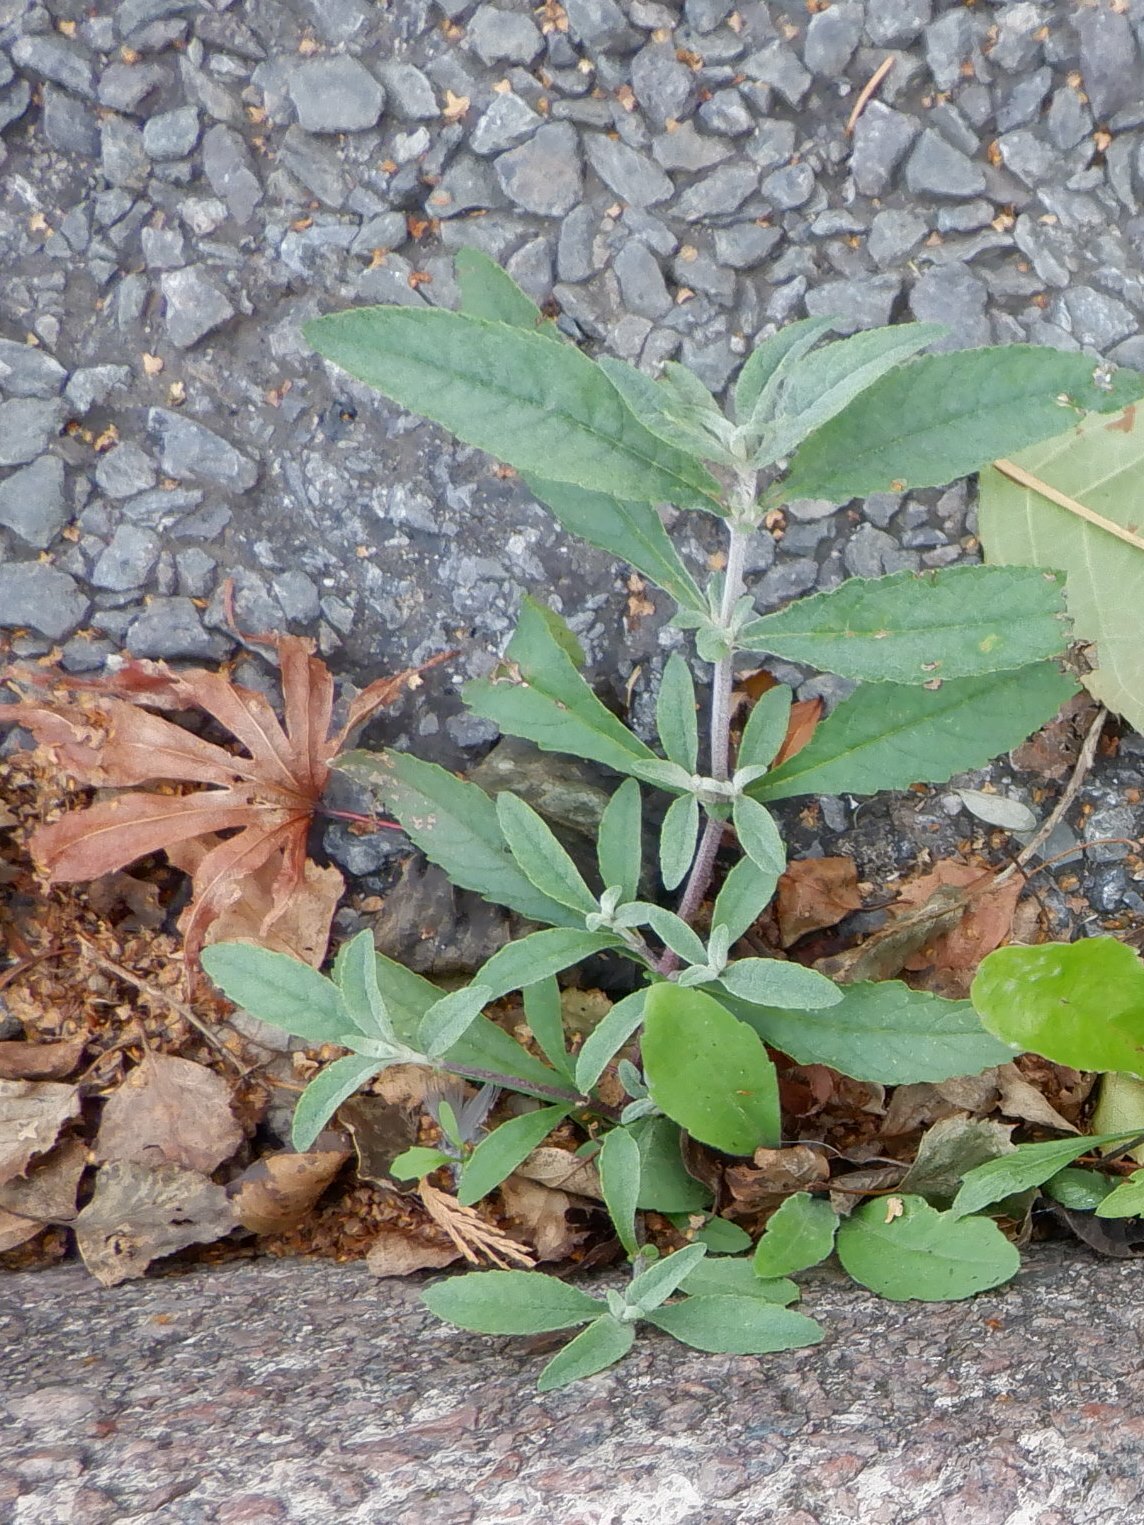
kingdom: Plantae
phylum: Tracheophyta
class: Magnoliopsida
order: Lamiales
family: Scrophulariaceae
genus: Buddleja
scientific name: Buddleja davidii
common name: Butterfly-bush
